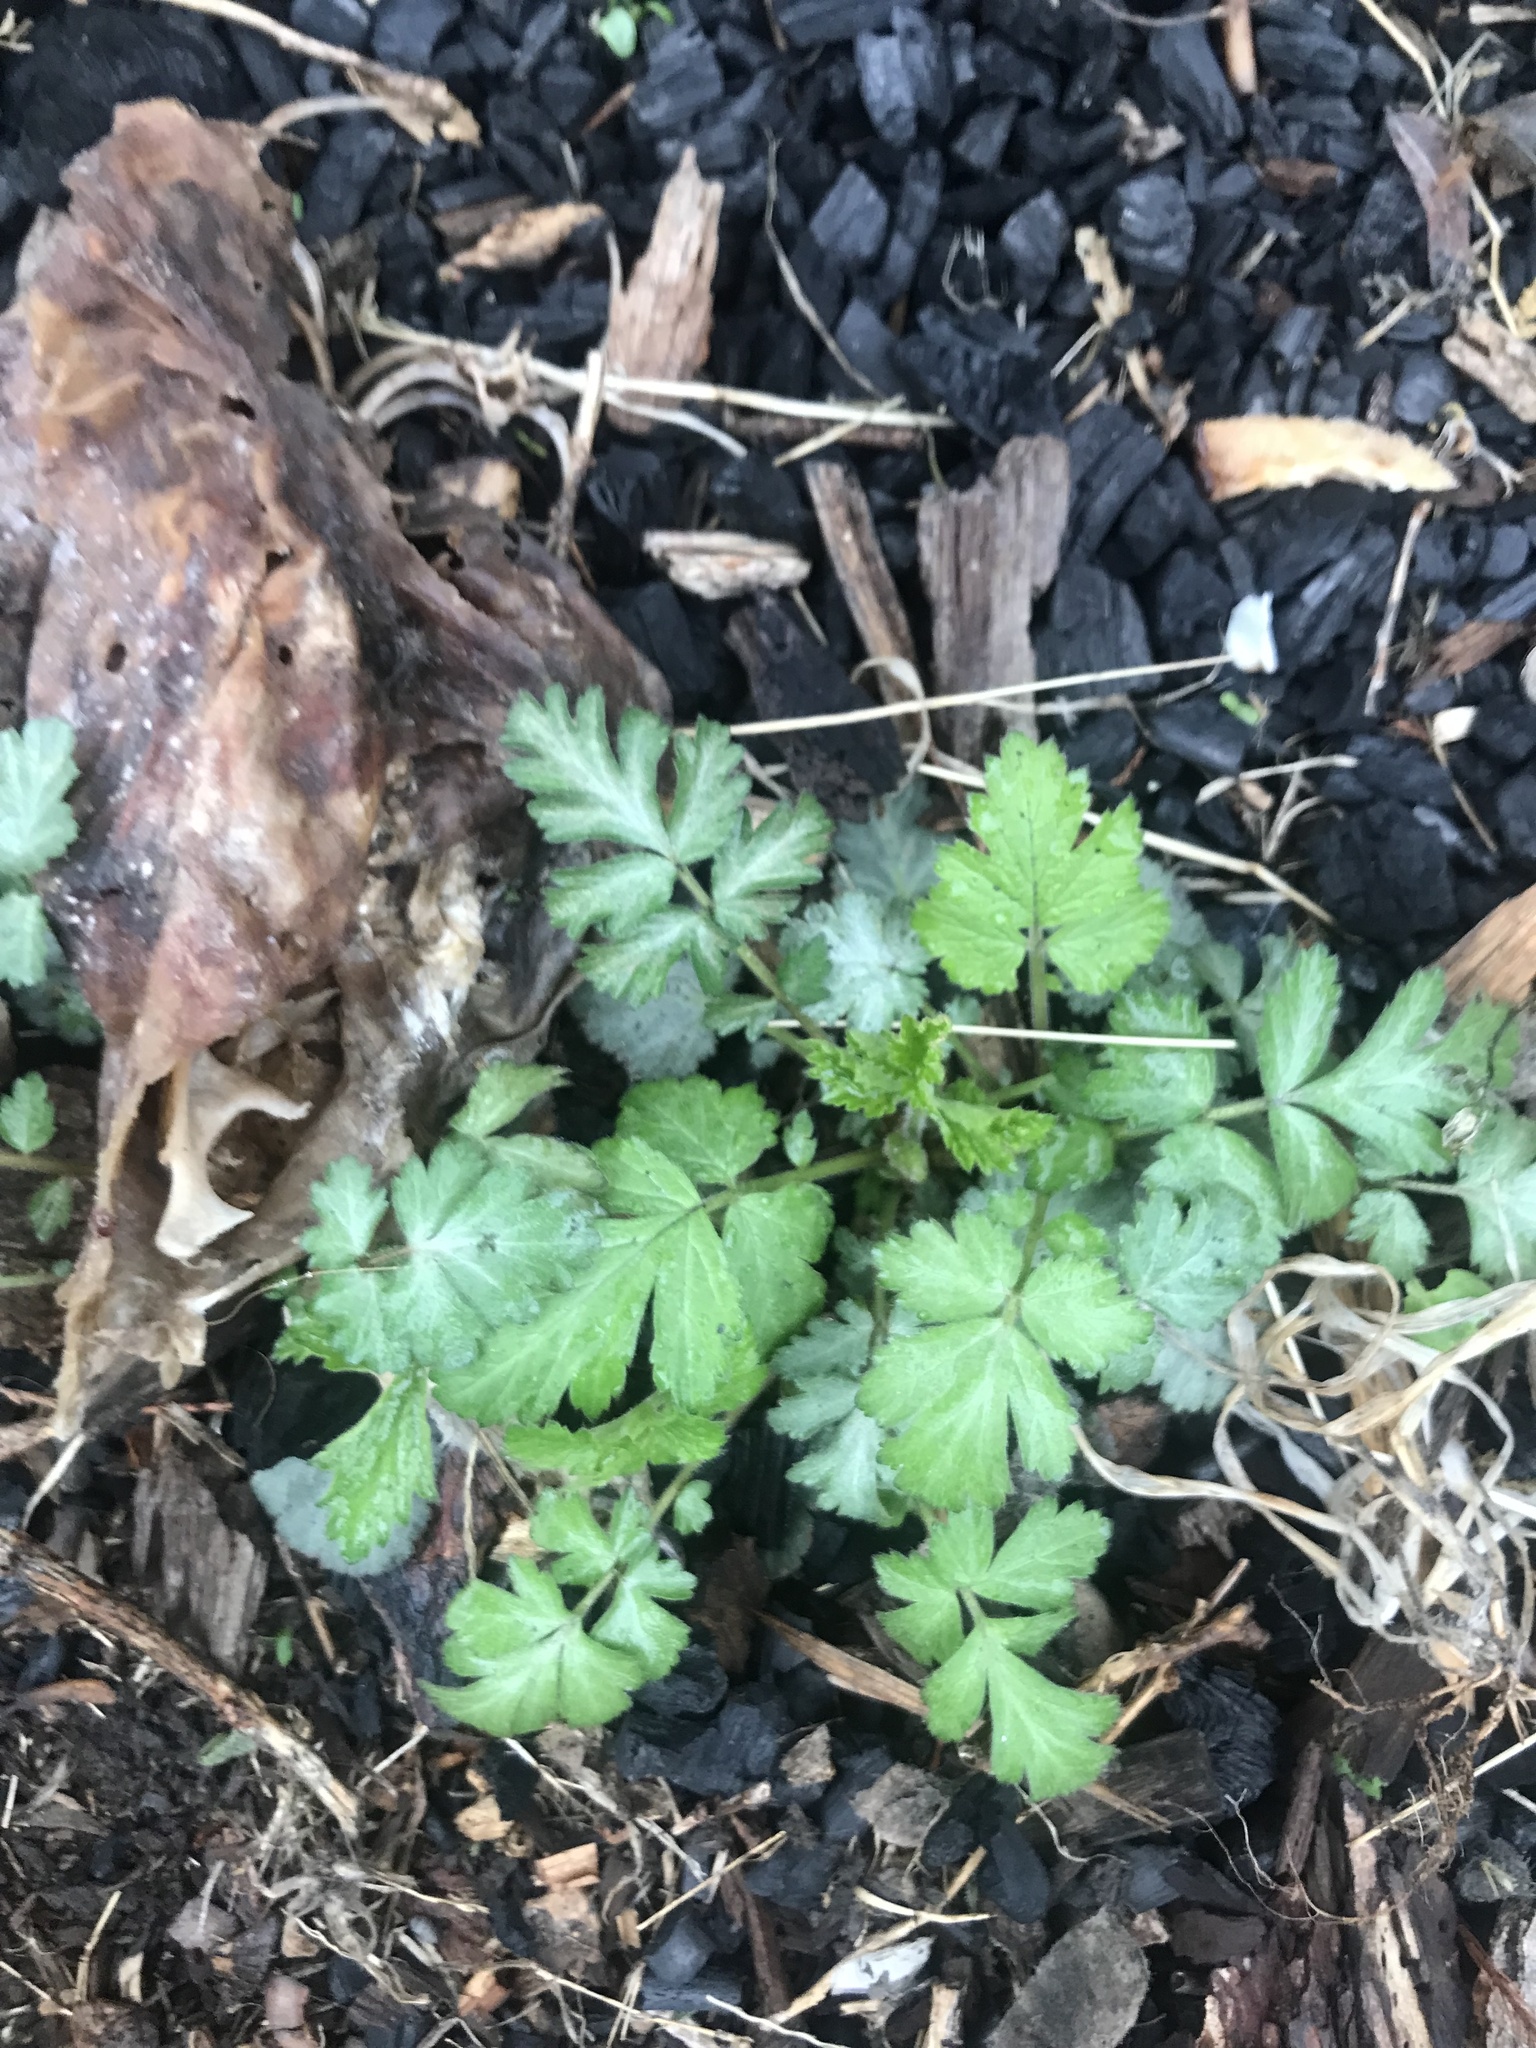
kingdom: Plantae
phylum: Tracheophyta
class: Magnoliopsida
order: Rosales
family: Rosaceae
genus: Geum
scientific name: Geum canadense
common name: White avens
